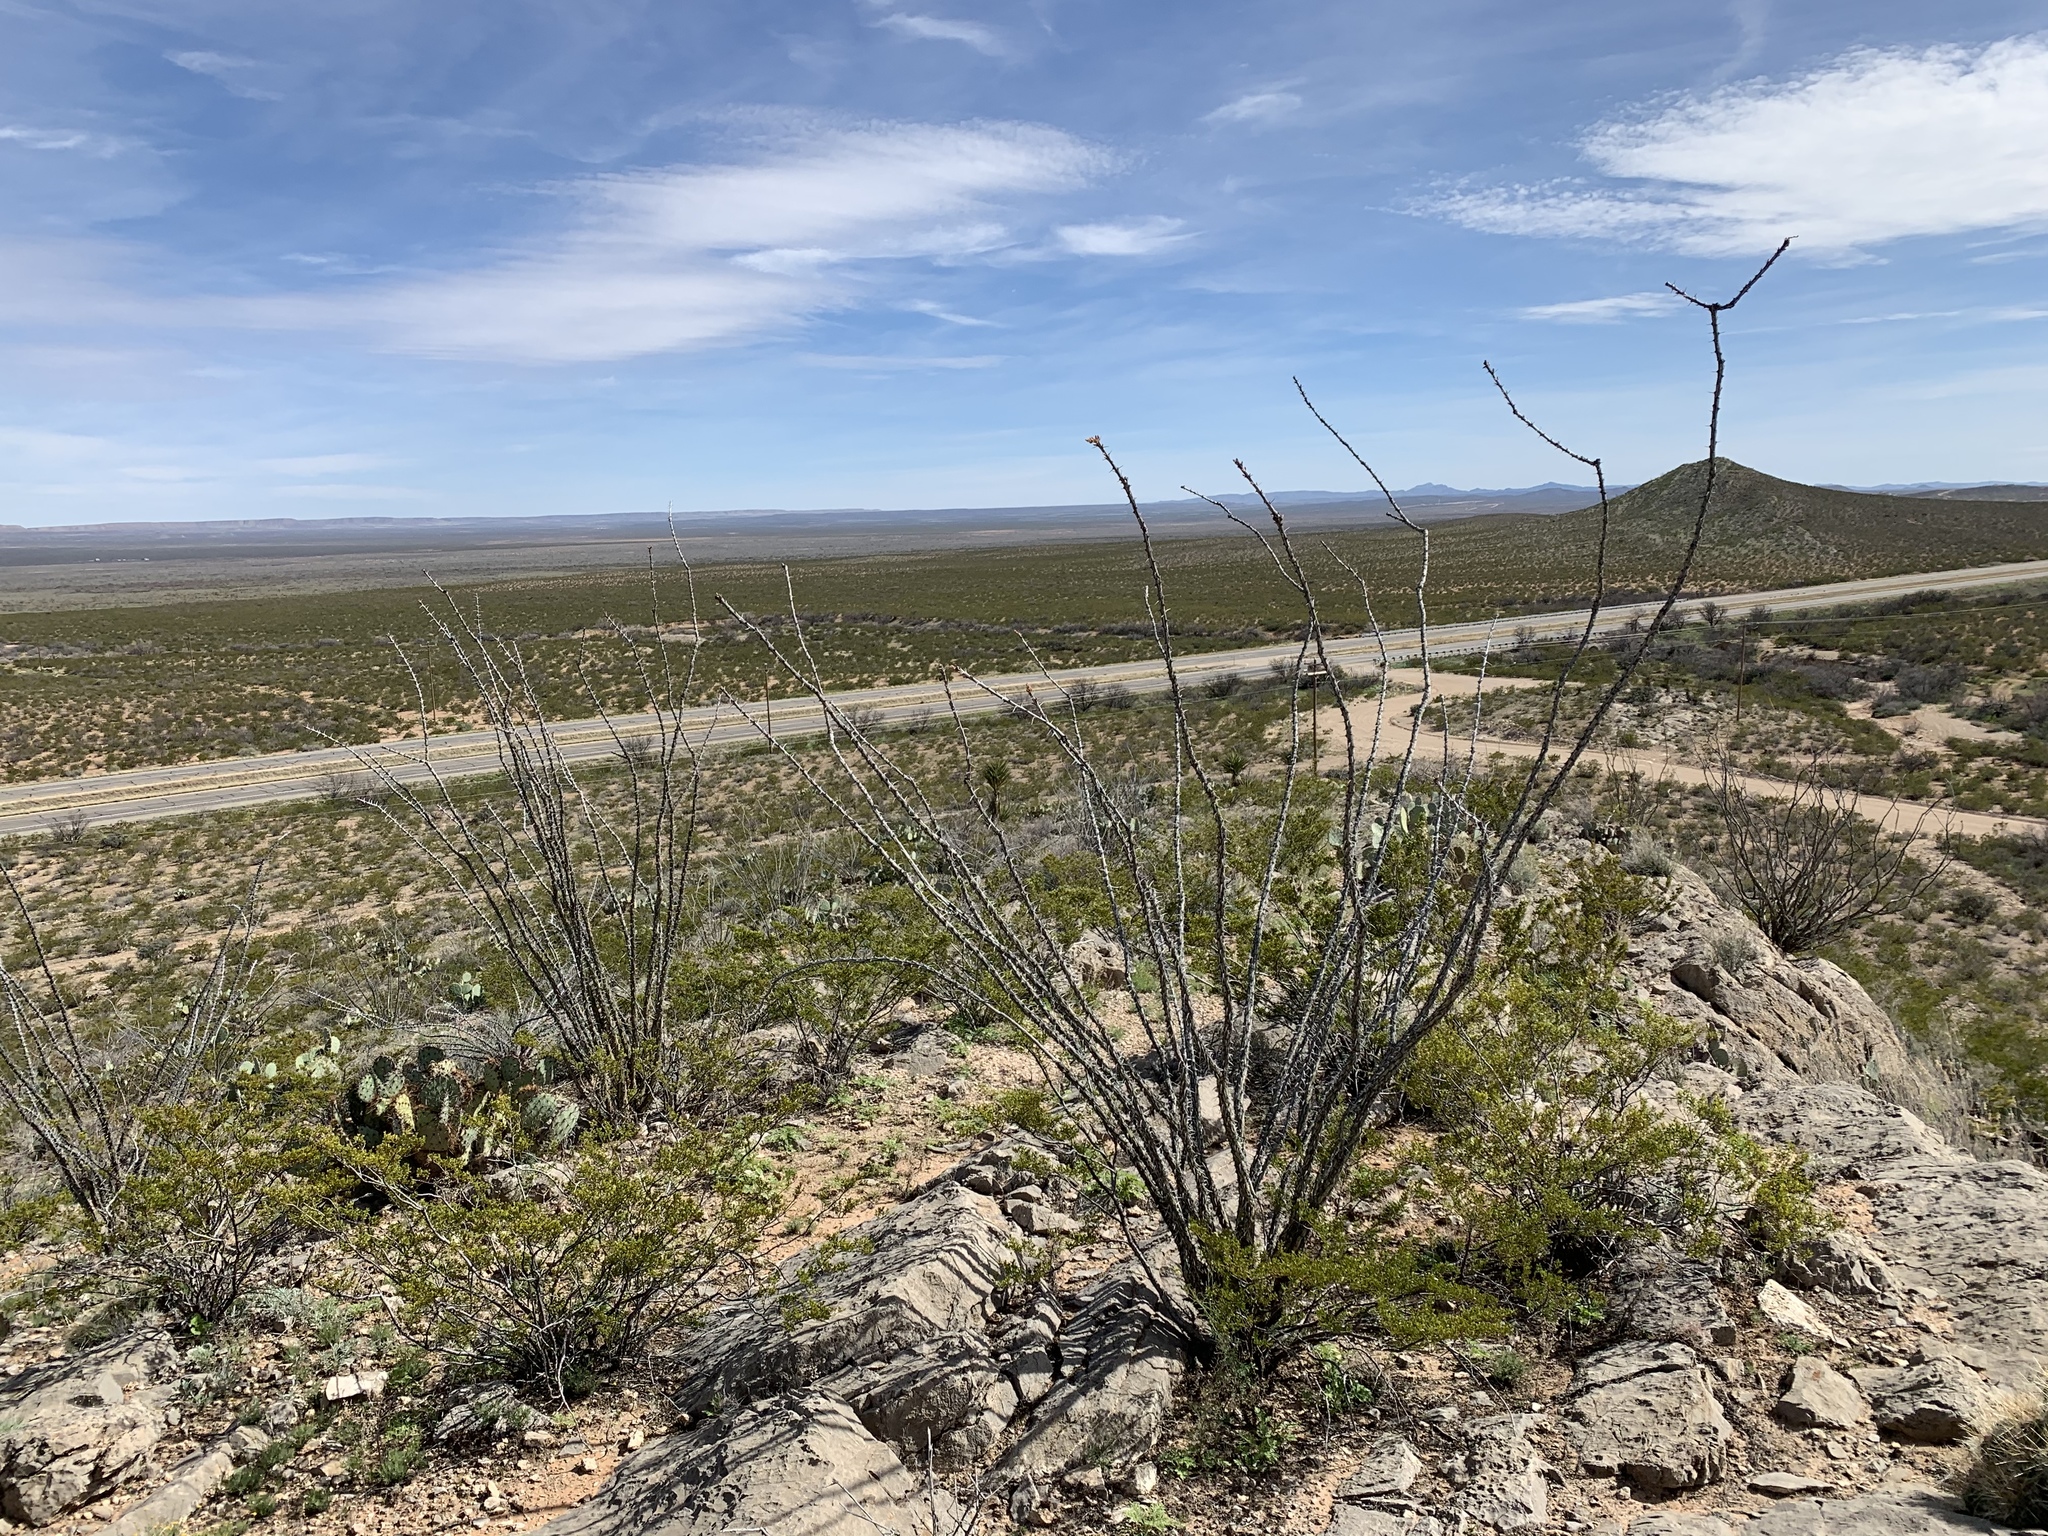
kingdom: Plantae
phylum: Tracheophyta
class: Magnoliopsida
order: Ericales
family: Fouquieriaceae
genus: Fouquieria
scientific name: Fouquieria splendens
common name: Vine-cactus
